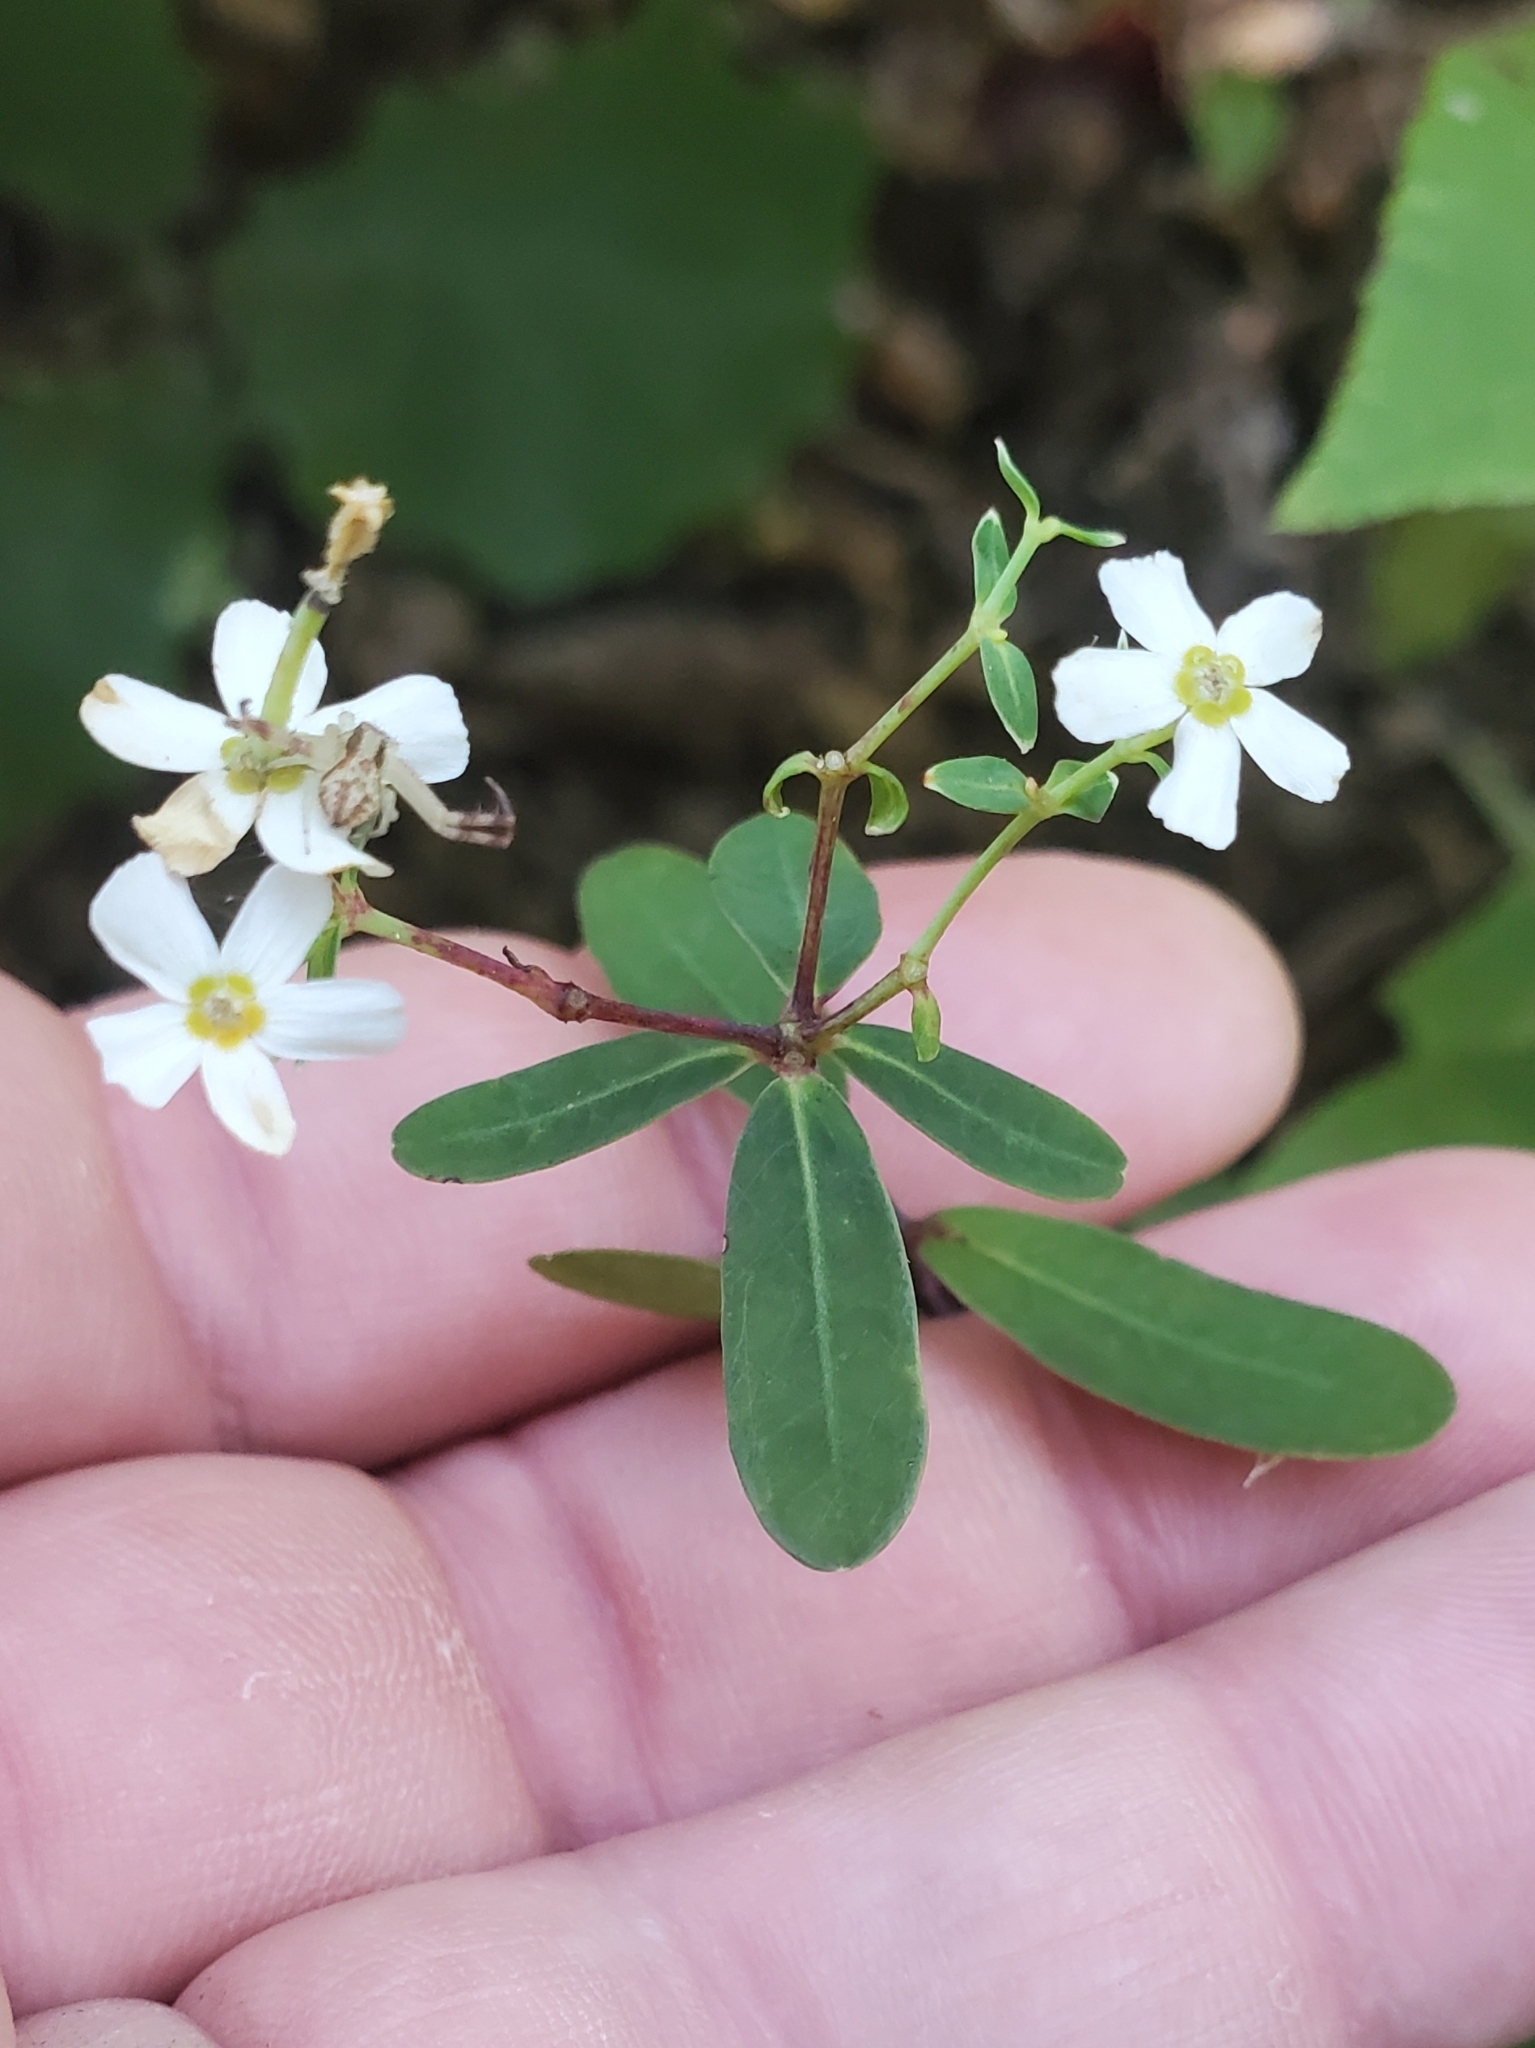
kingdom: Plantae
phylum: Tracheophyta
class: Magnoliopsida
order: Malpighiales
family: Euphorbiaceae
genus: Euphorbia
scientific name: Euphorbia corollata
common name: Flowering spurge
